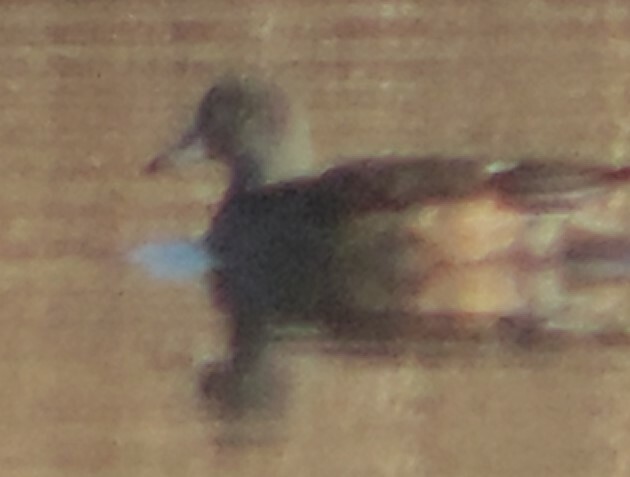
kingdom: Animalia
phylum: Chordata
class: Aves
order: Anseriformes
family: Anatidae
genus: Mareca
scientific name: Mareca americana
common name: American wigeon
